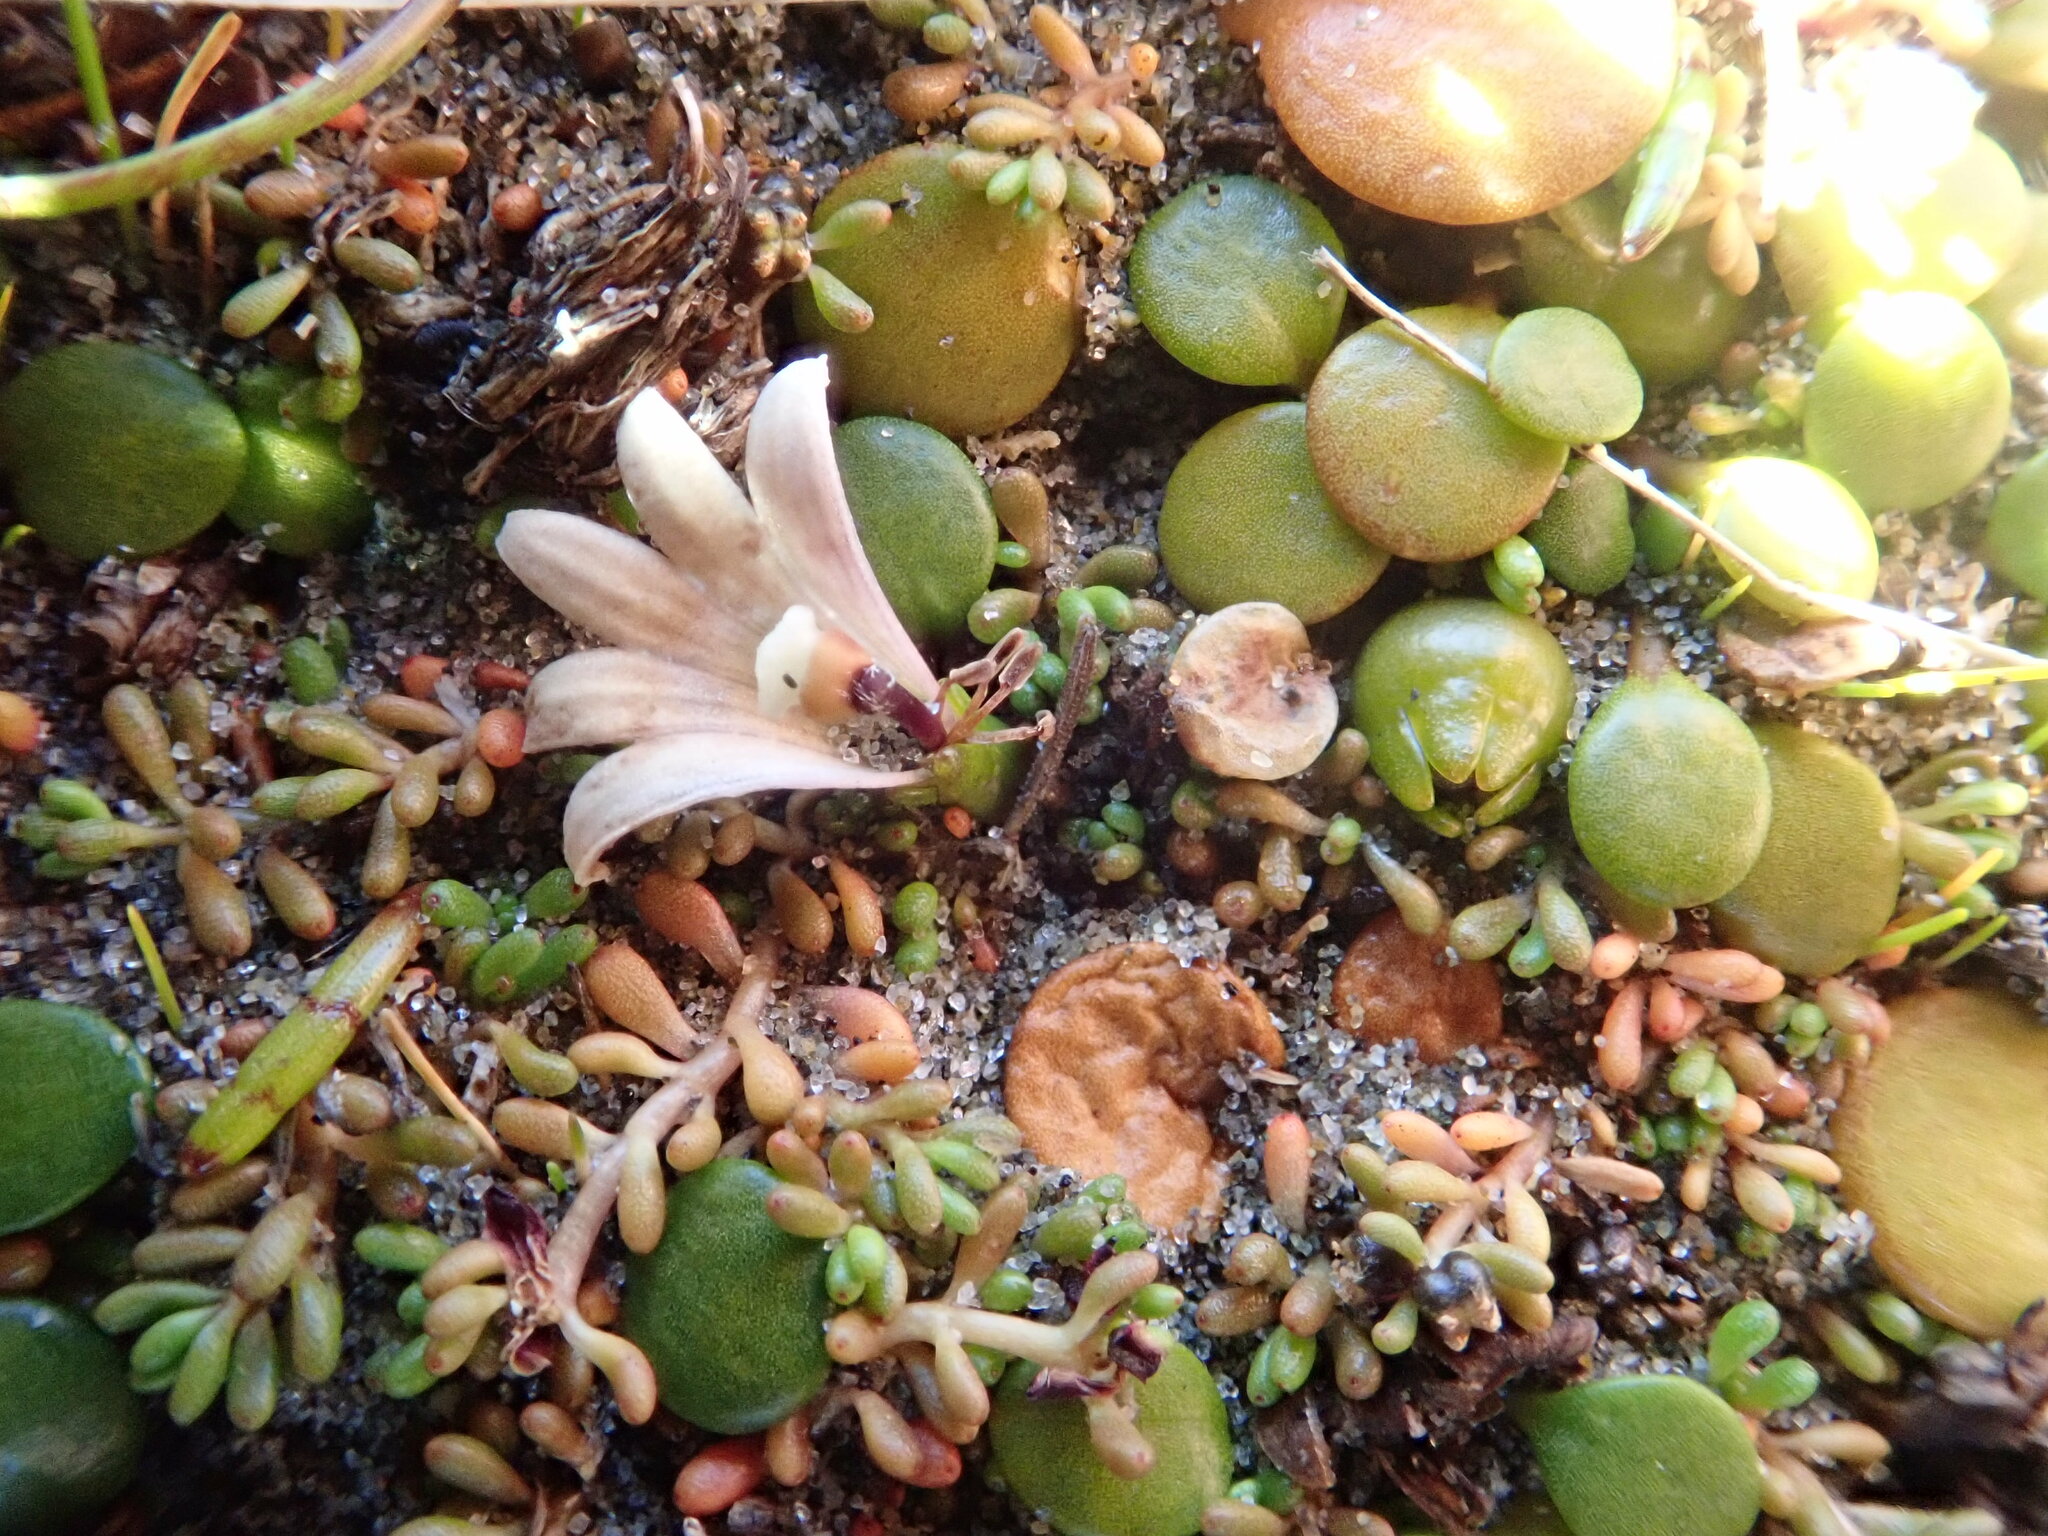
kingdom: Plantae
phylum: Tracheophyta
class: Magnoliopsida
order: Asterales
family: Goodeniaceae
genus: Goodenia
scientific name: Goodenia heenanii
